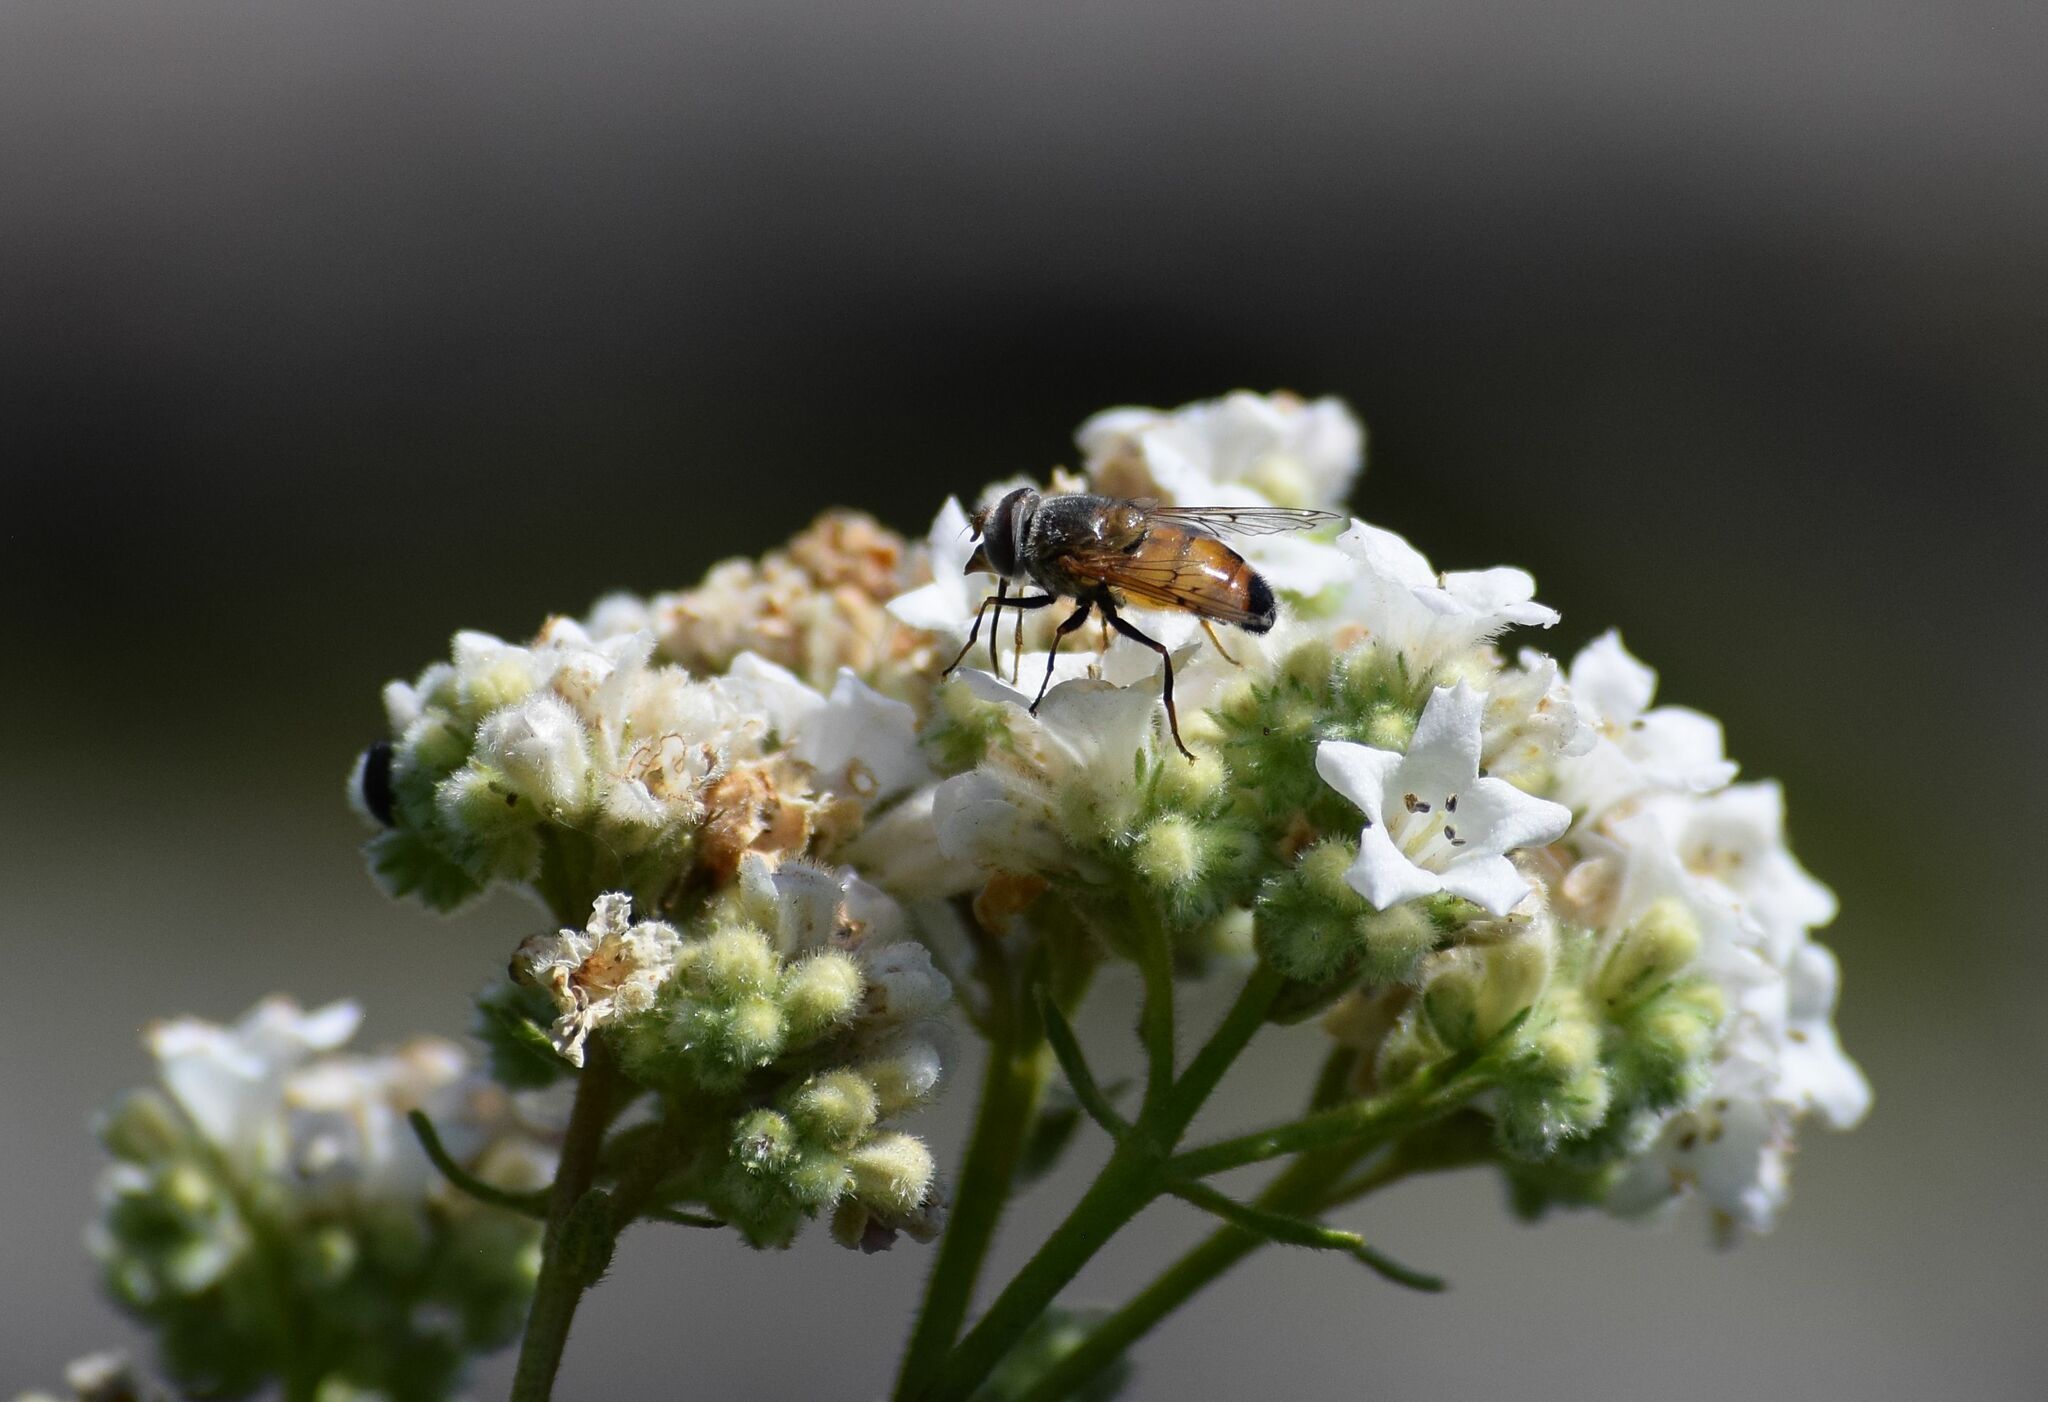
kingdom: Animalia
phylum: Arthropoda
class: Insecta
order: Diptera
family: Syrphidae
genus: Copestylum
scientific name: Copestylum haagii
